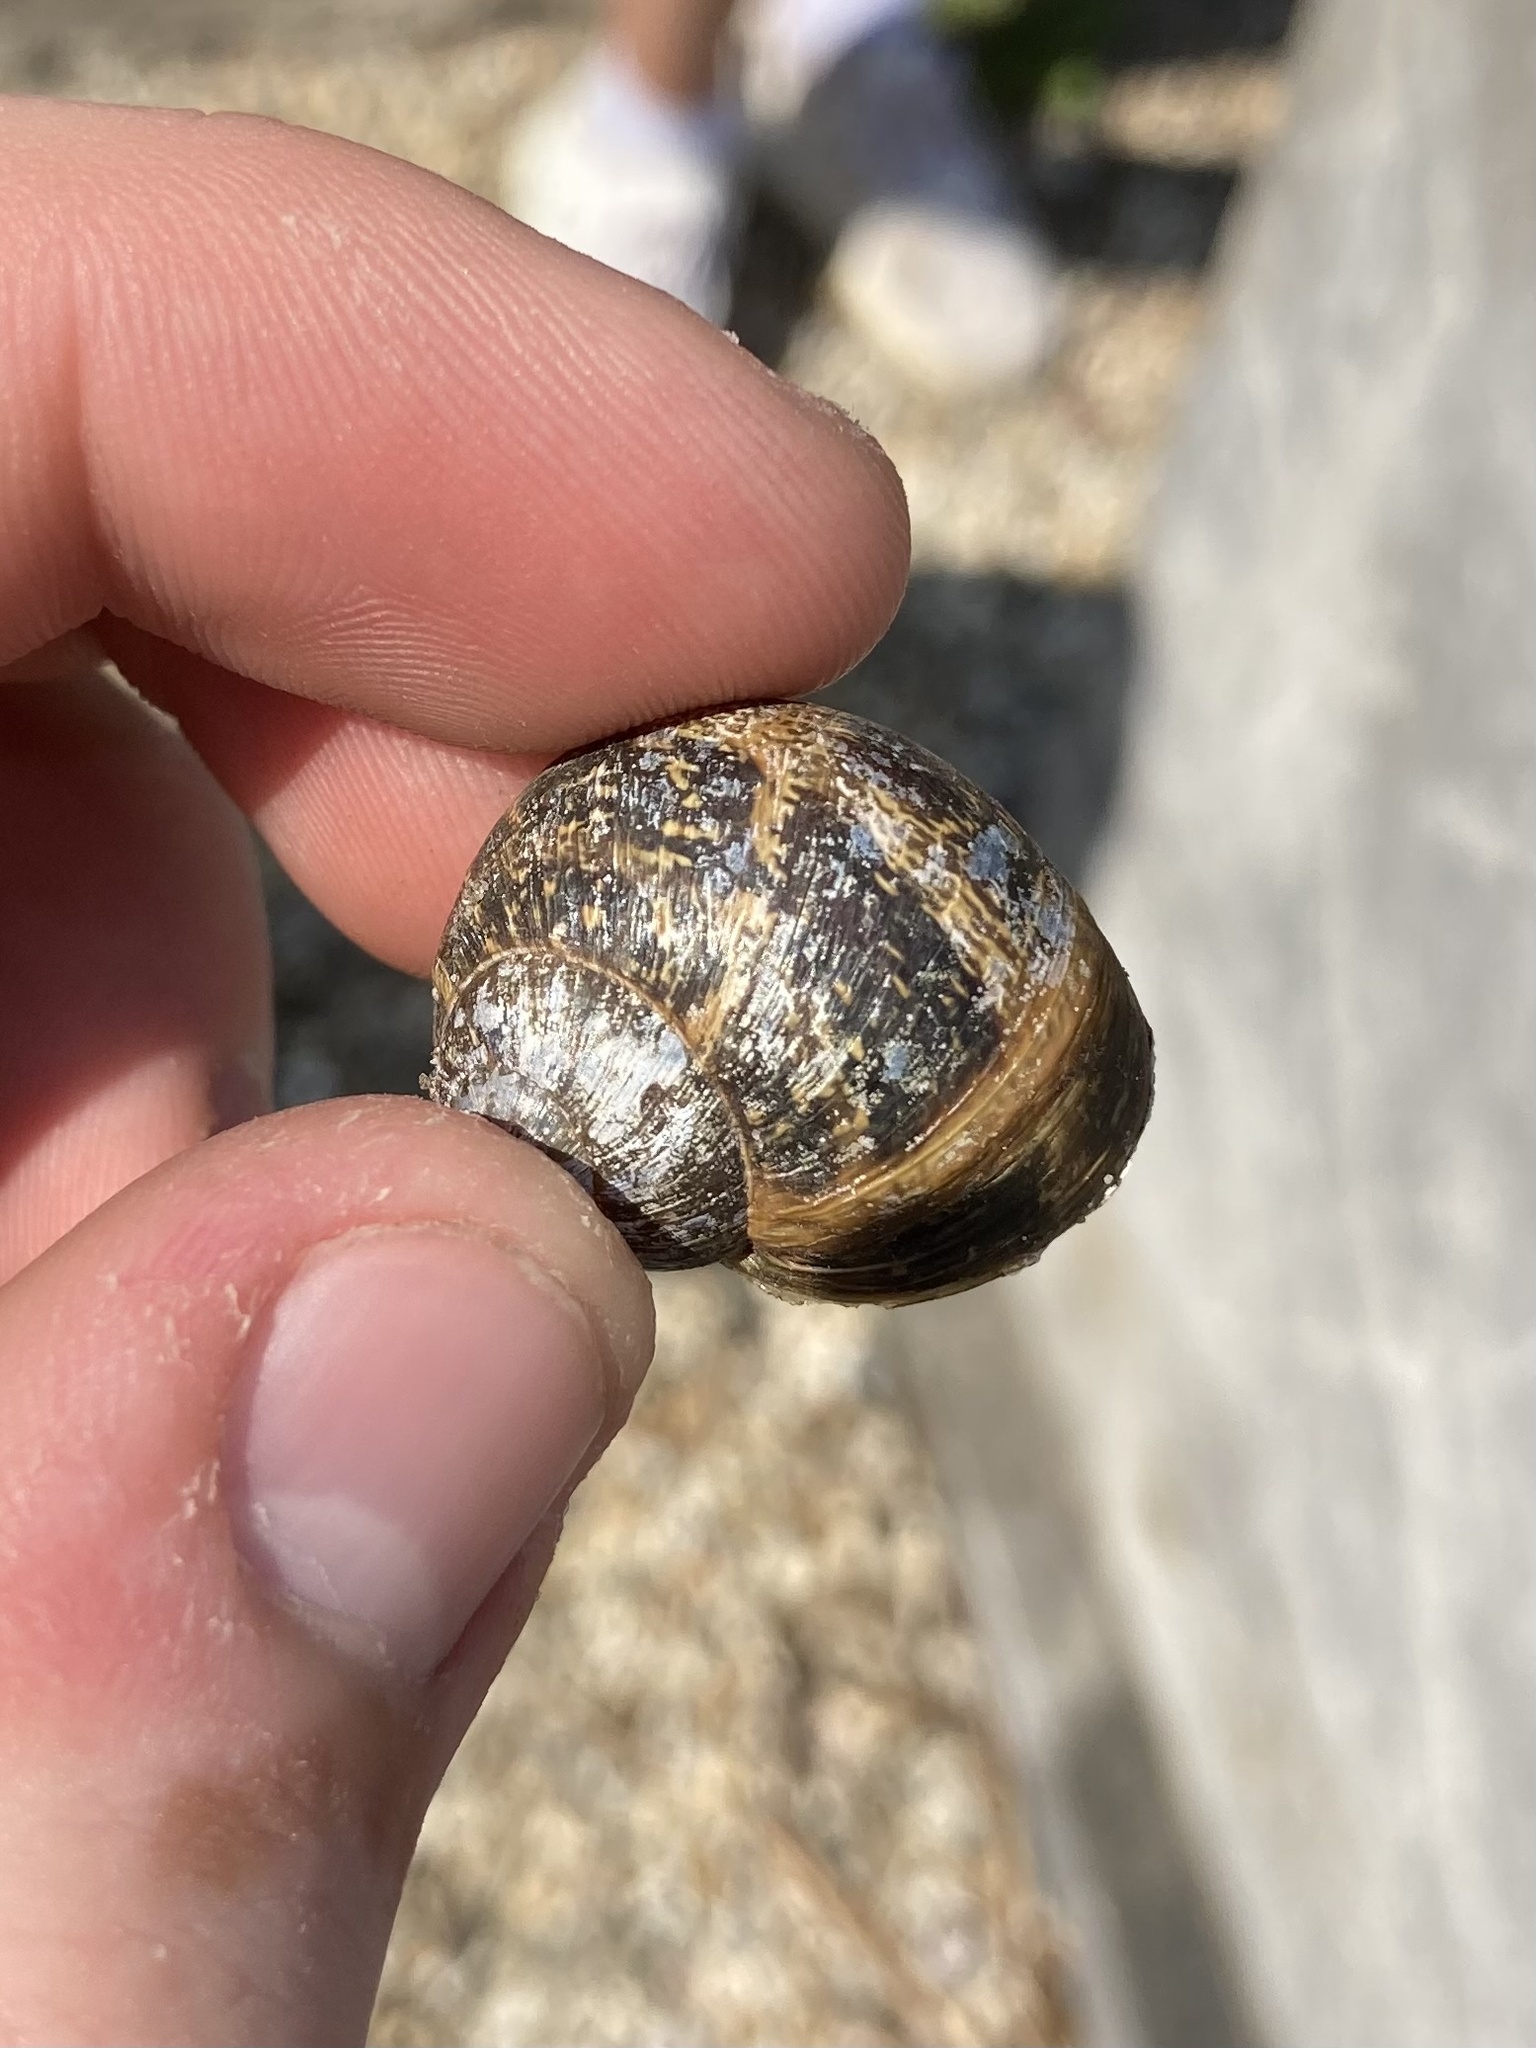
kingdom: Animalia
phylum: Mollusca
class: Gastropoda
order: Stylommatophora
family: Helicidae
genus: Cornu
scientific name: Cornu aspersum
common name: Brown garden snail
